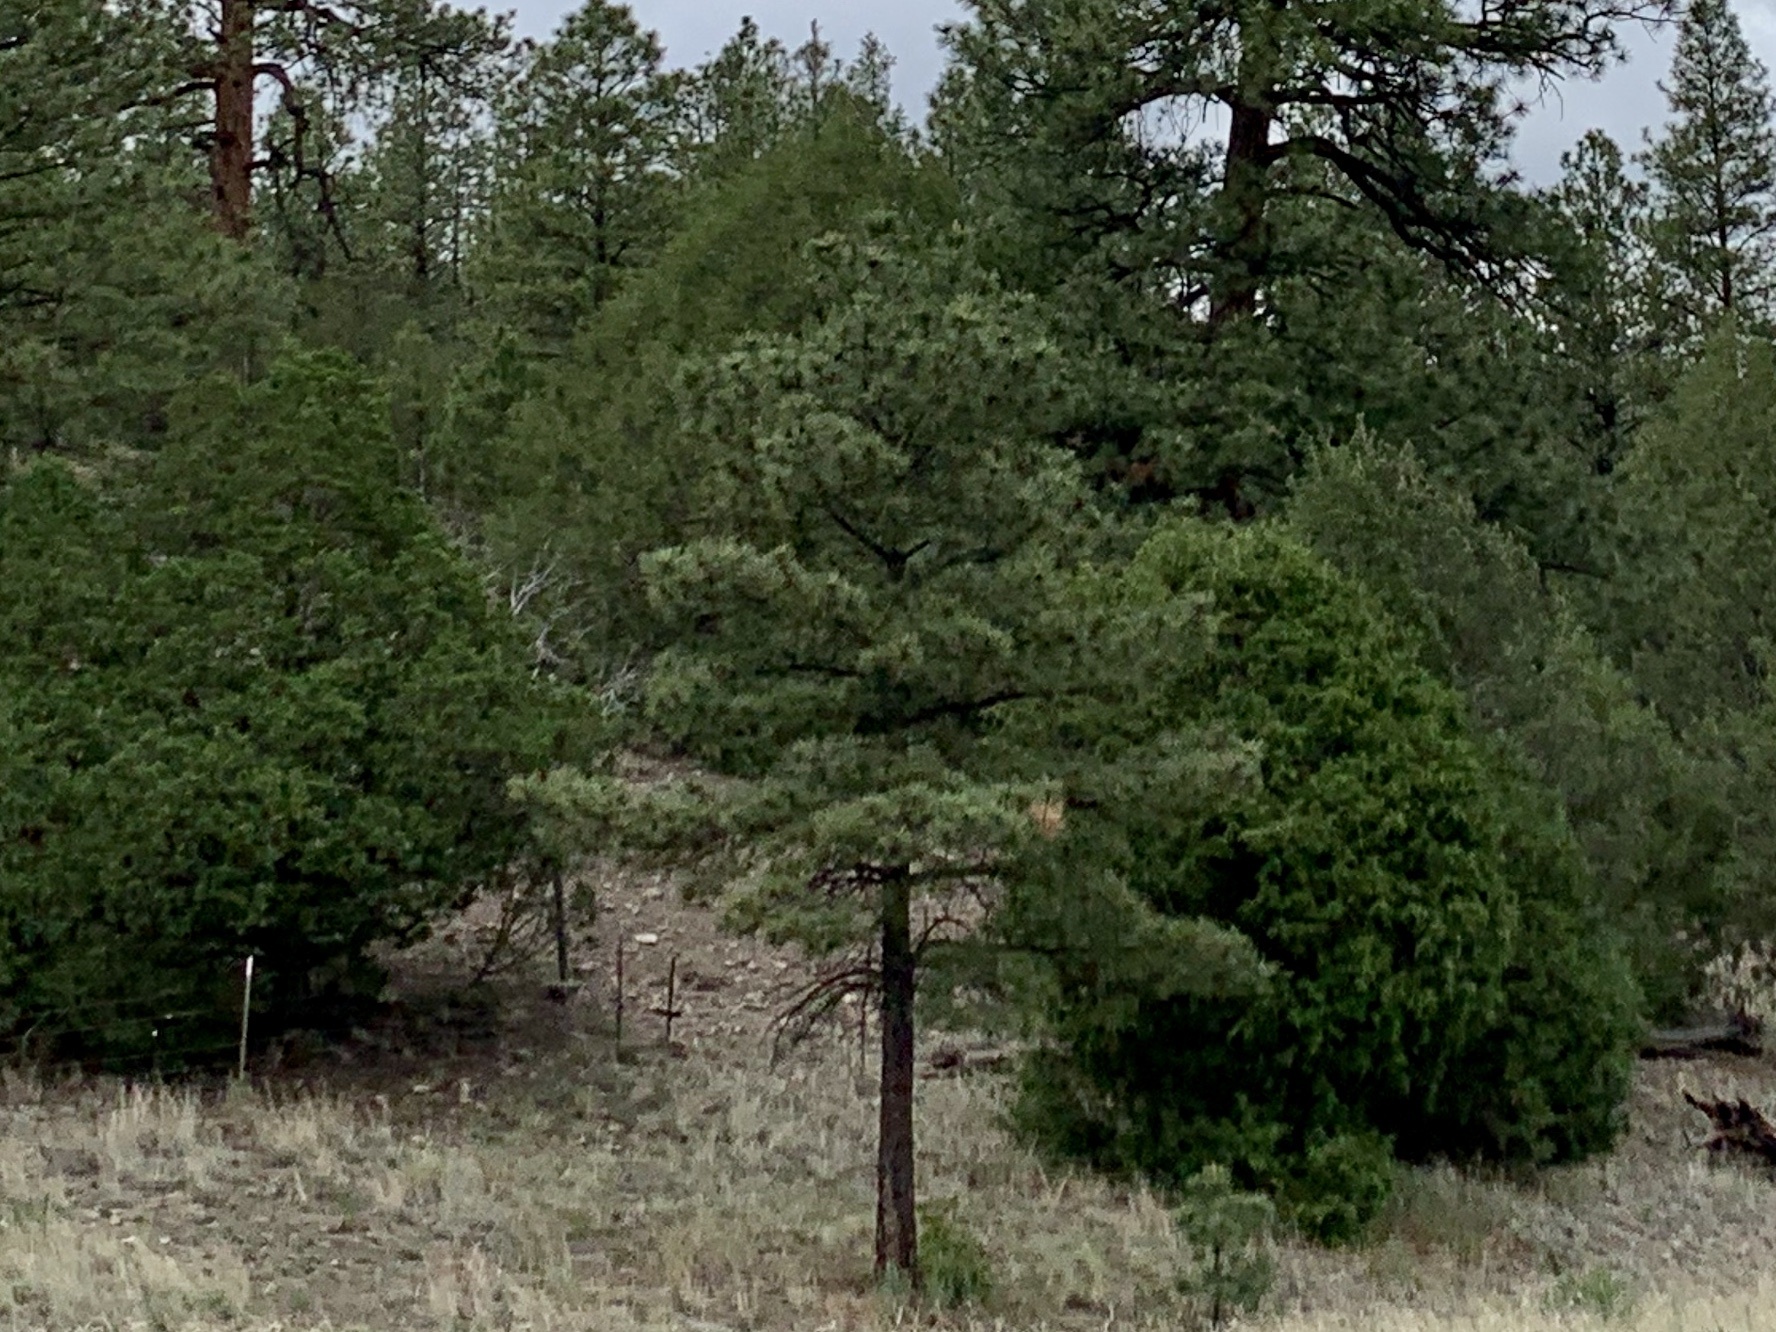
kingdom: Plantae
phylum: Tracheophyta
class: Pinopsida
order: Pinales
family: Pinaceae
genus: Pinus
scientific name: Pinus ponderosa
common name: Western yellow-pine
